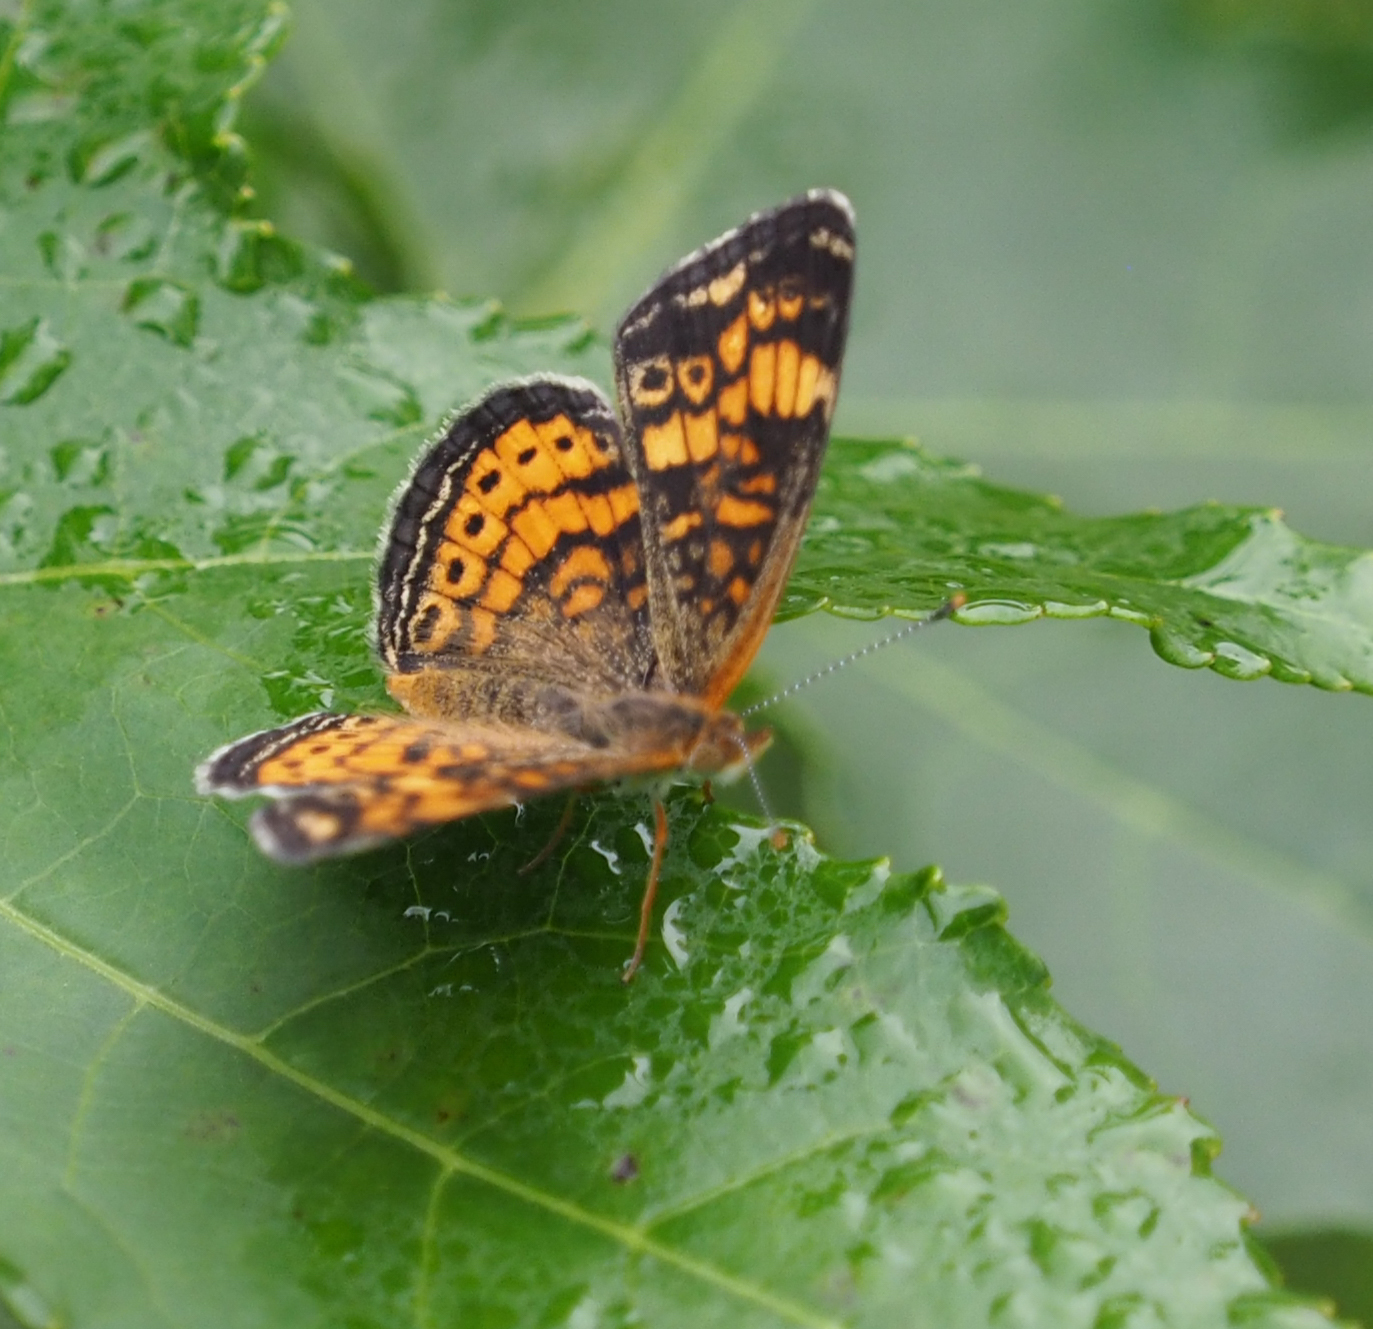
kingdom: Animalia
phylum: Arthropoda
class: Insecta
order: Lepidoptera
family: Nymphalidae
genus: Phyciodes
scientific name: Phyciodes tharos
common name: Pearl crescent
